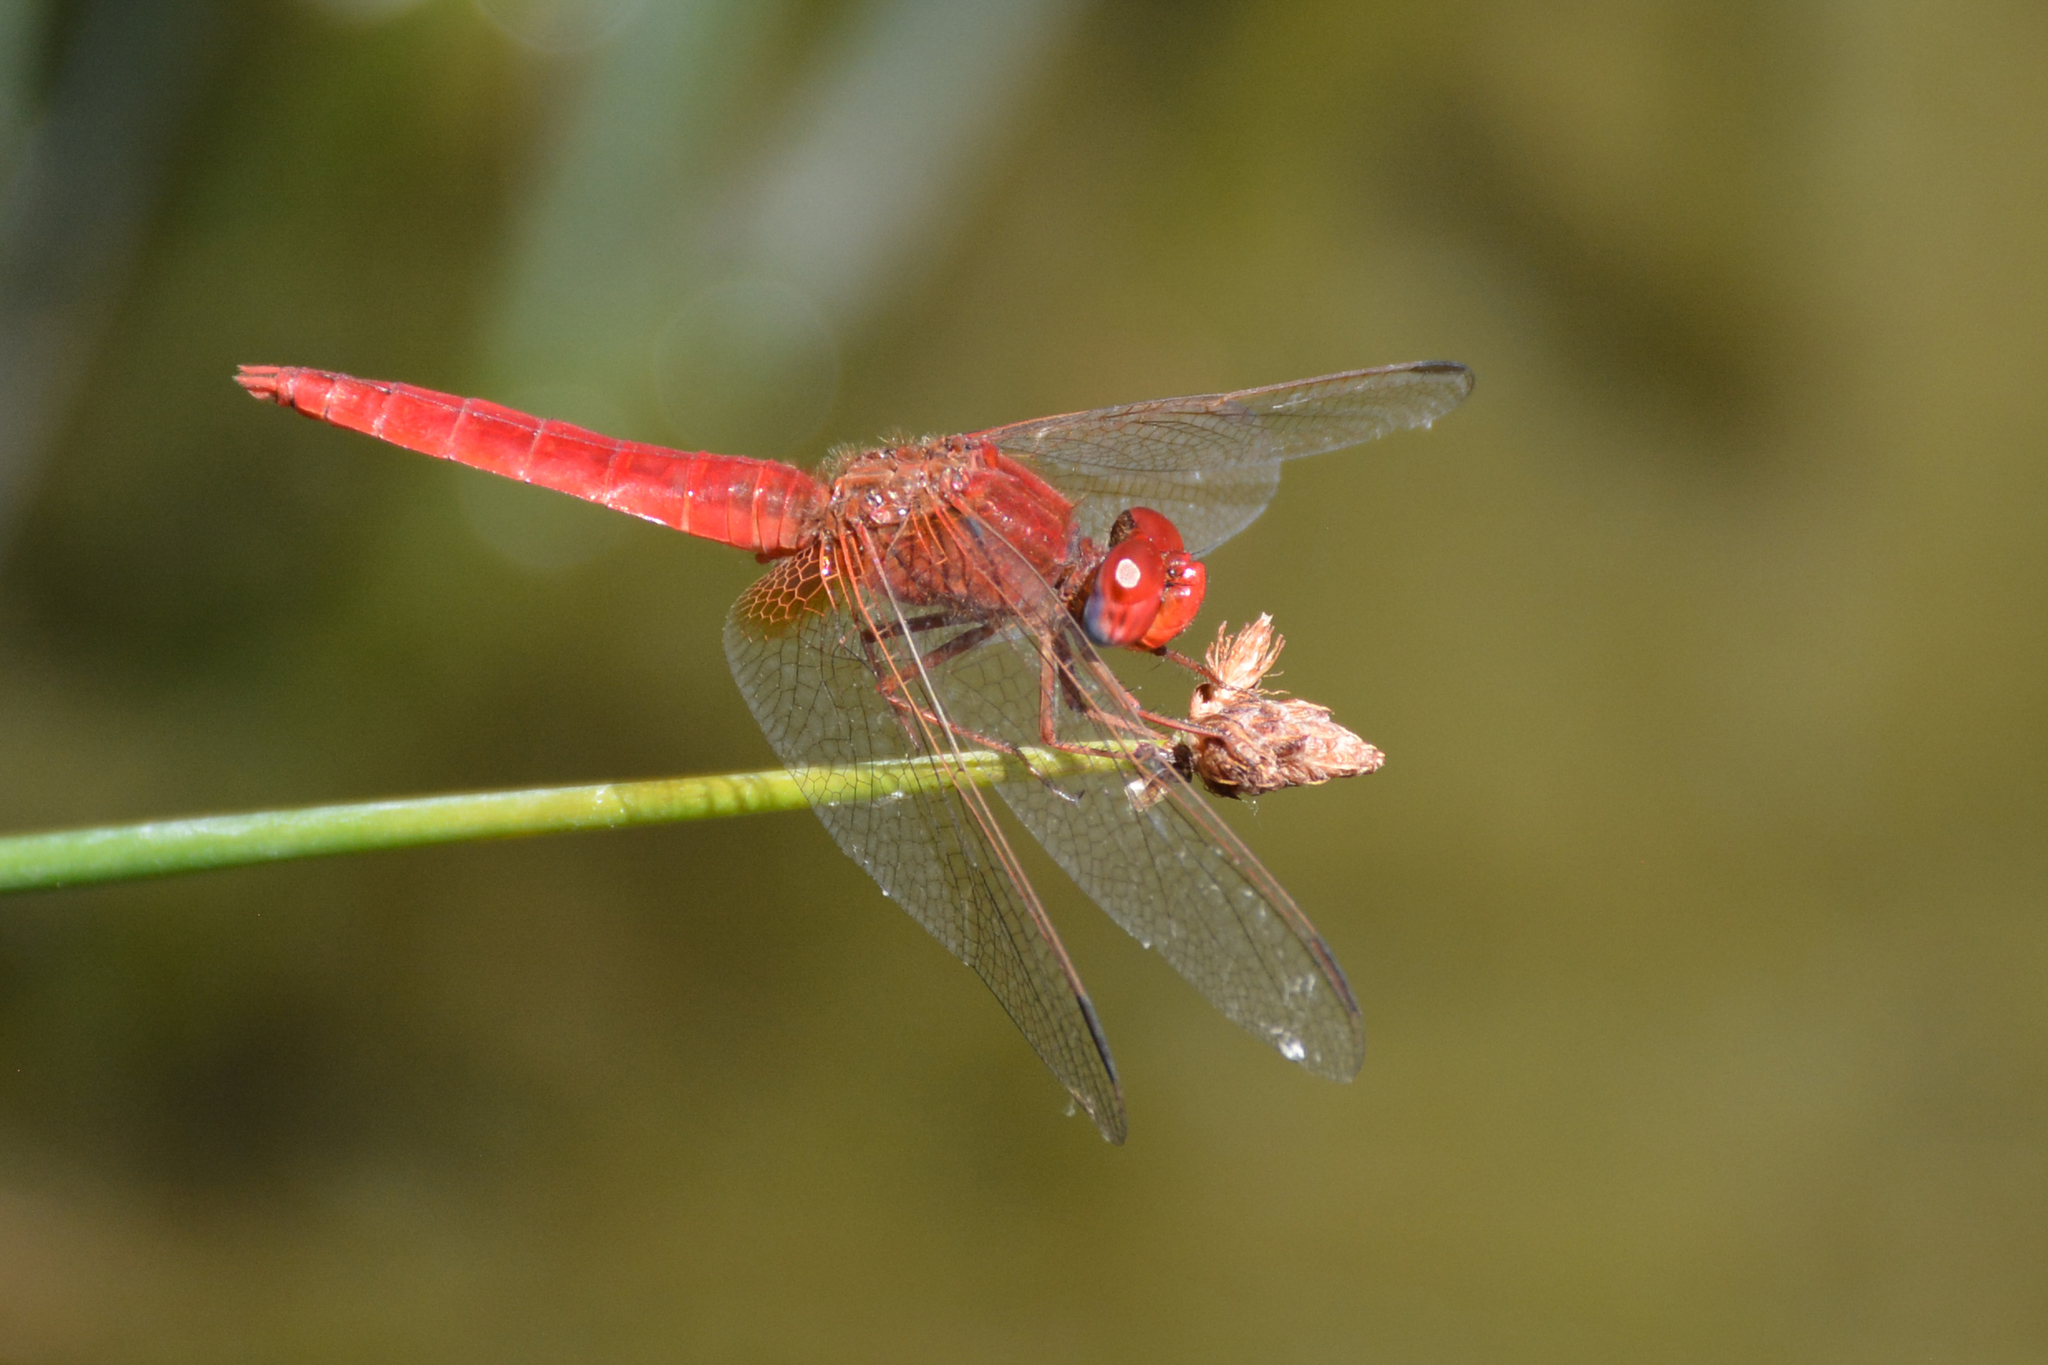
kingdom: Animalia
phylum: Arthropoda
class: Insecta
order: Odonata
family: Libellulidae
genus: Crocothemis
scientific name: Crocothemis erythraea
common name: Scarlet dragonfly
